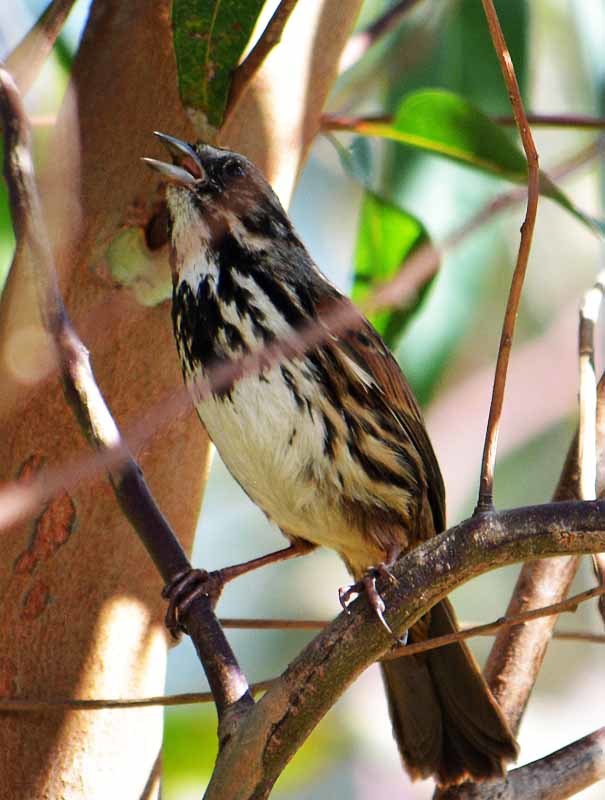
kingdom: Animalia
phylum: Chordata
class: Aves
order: Passeriformes
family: Passerellidae
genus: Melospiza
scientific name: Melospiza melodia
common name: Song sparrow
